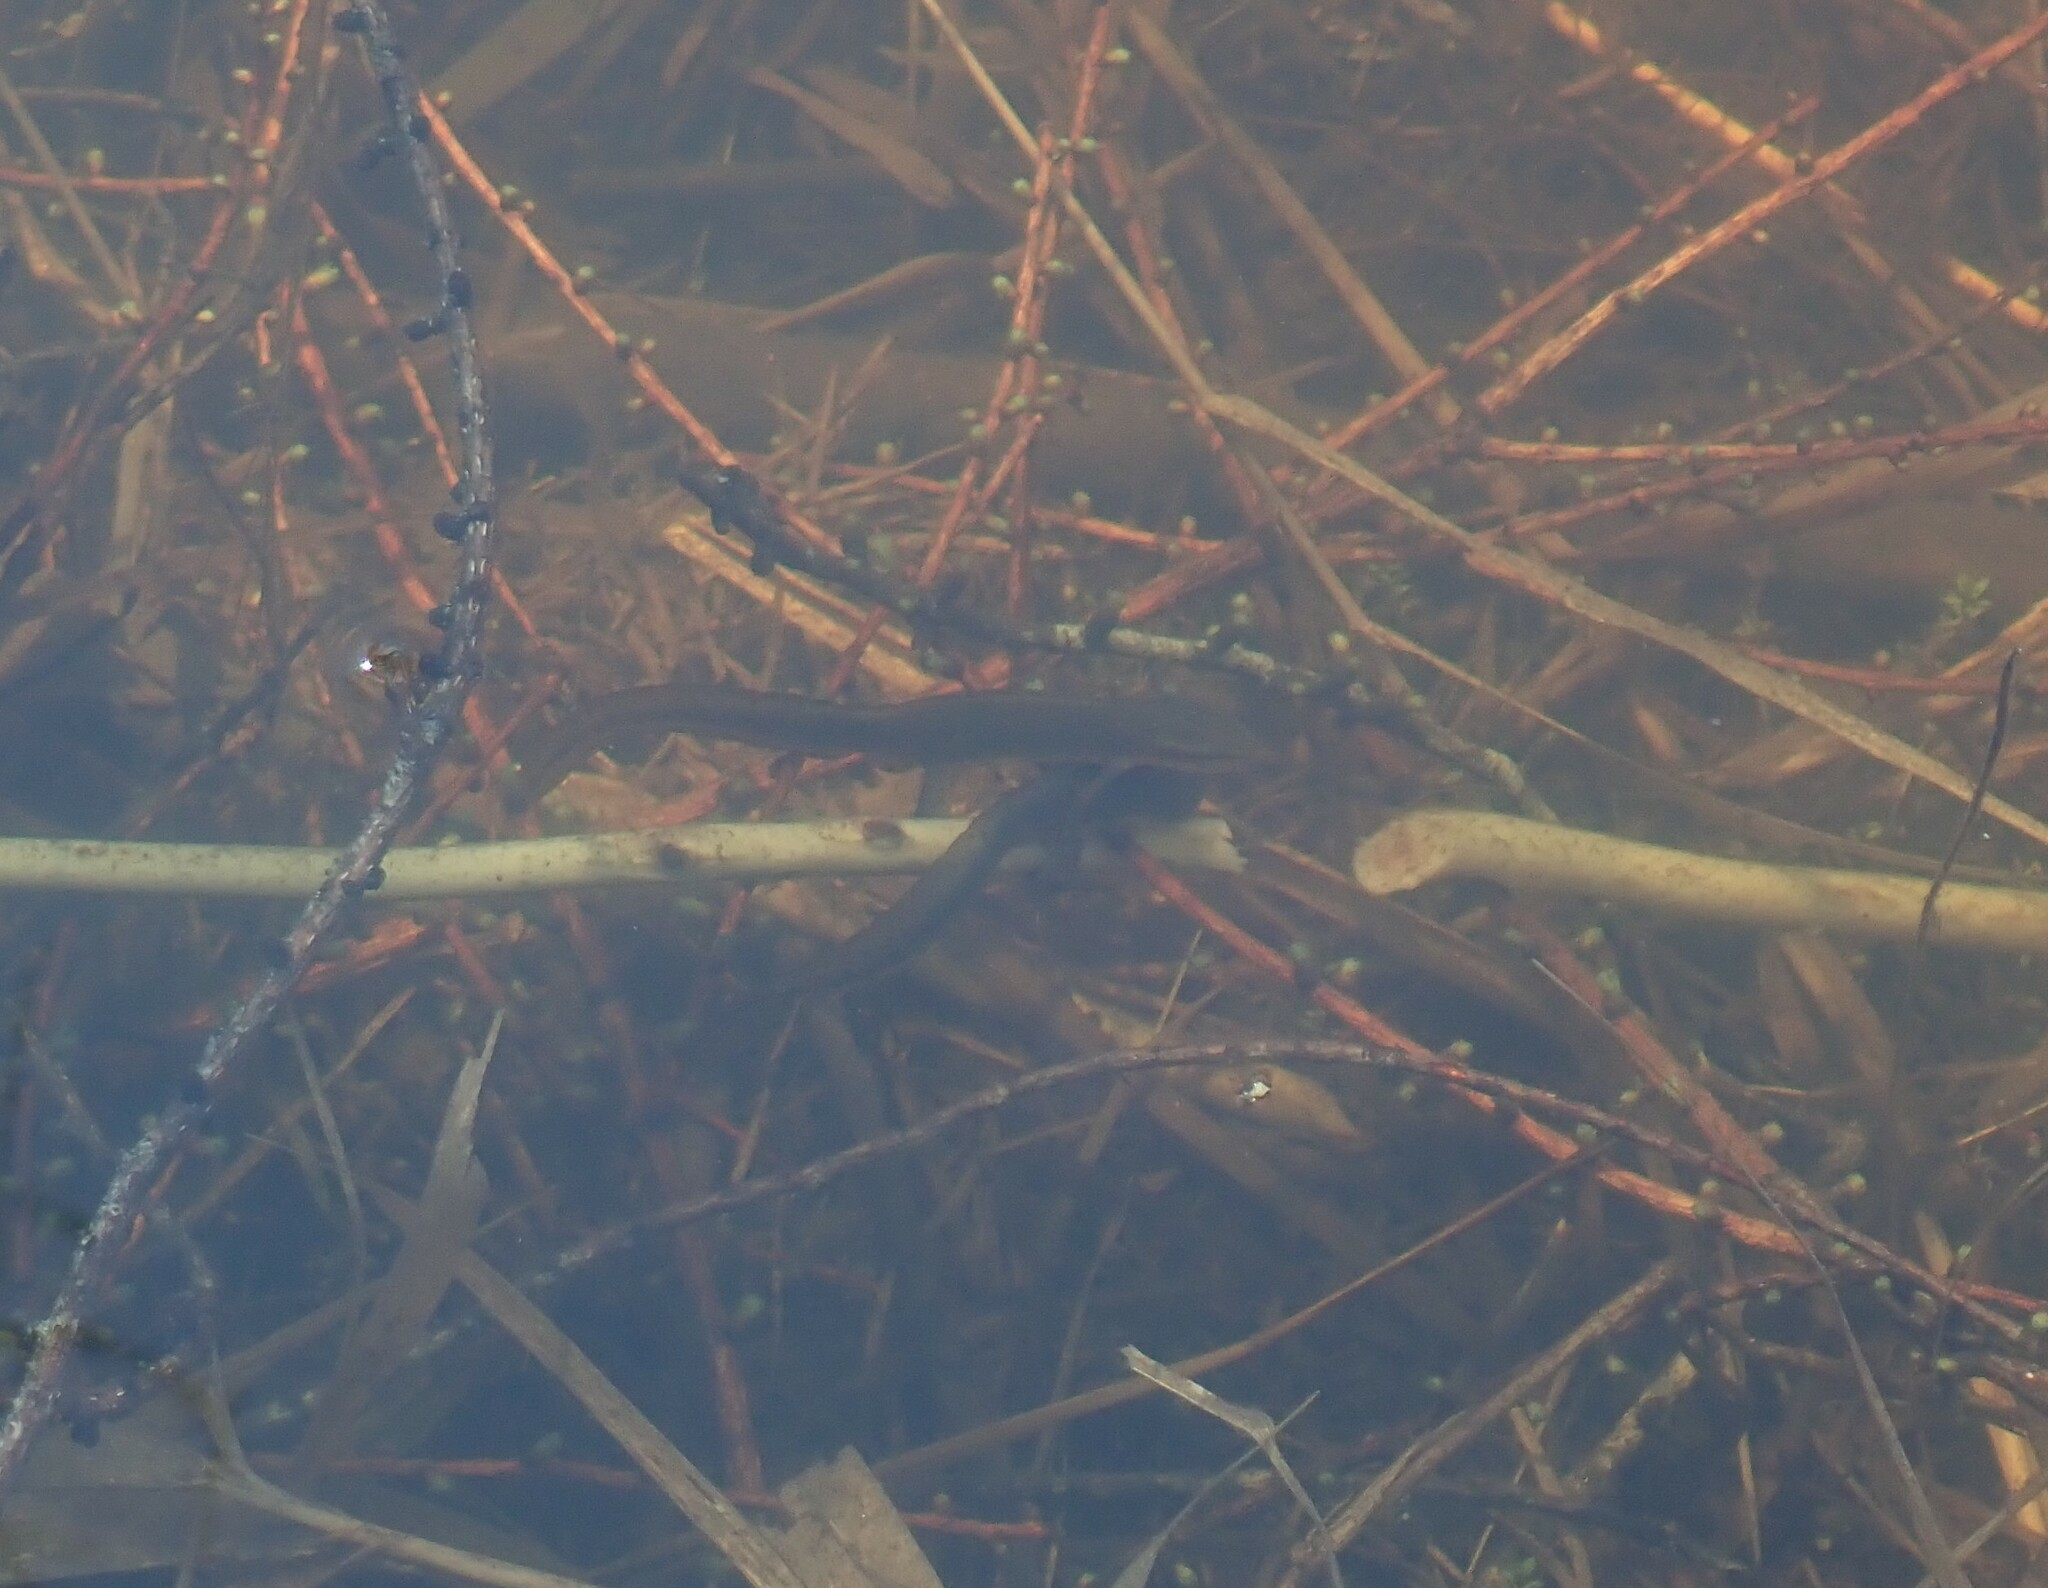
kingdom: Animalia
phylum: Chordata
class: Amphibia
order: Caudata
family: Salamandridae
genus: Notophthalmus
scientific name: Notophthalmus viridescens
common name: Eastern newt
